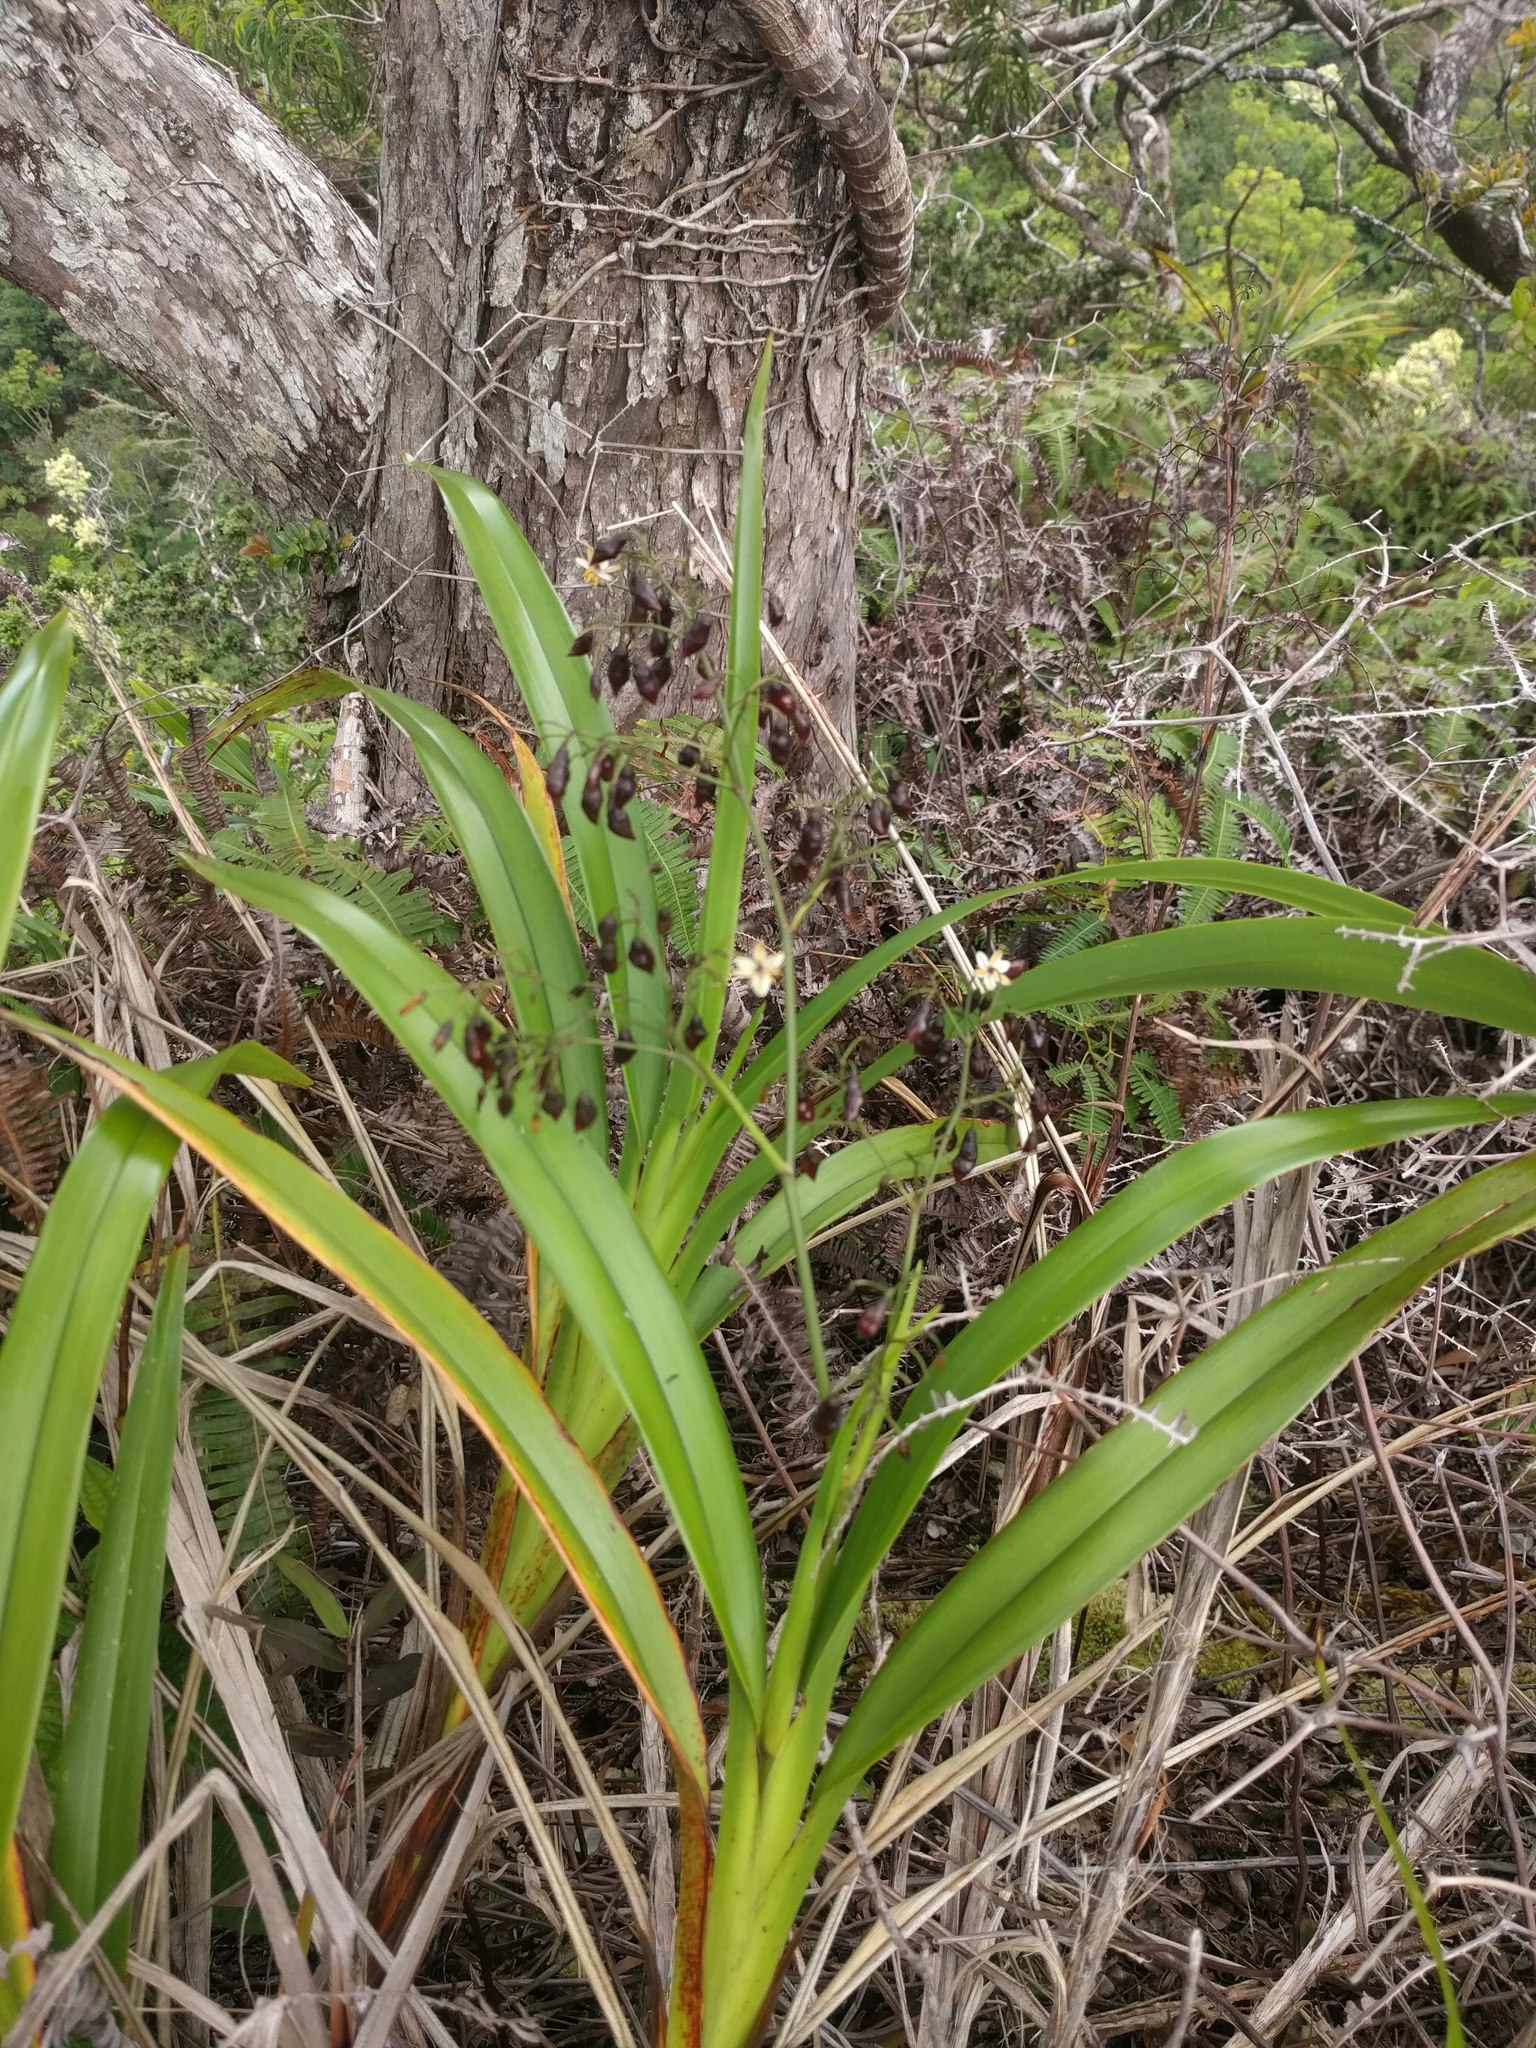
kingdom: Plantae
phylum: Tracheophyta
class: Liliopsida
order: Asparagales
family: Asphodelaceae
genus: Dianella
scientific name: Dianella sandwicensis
